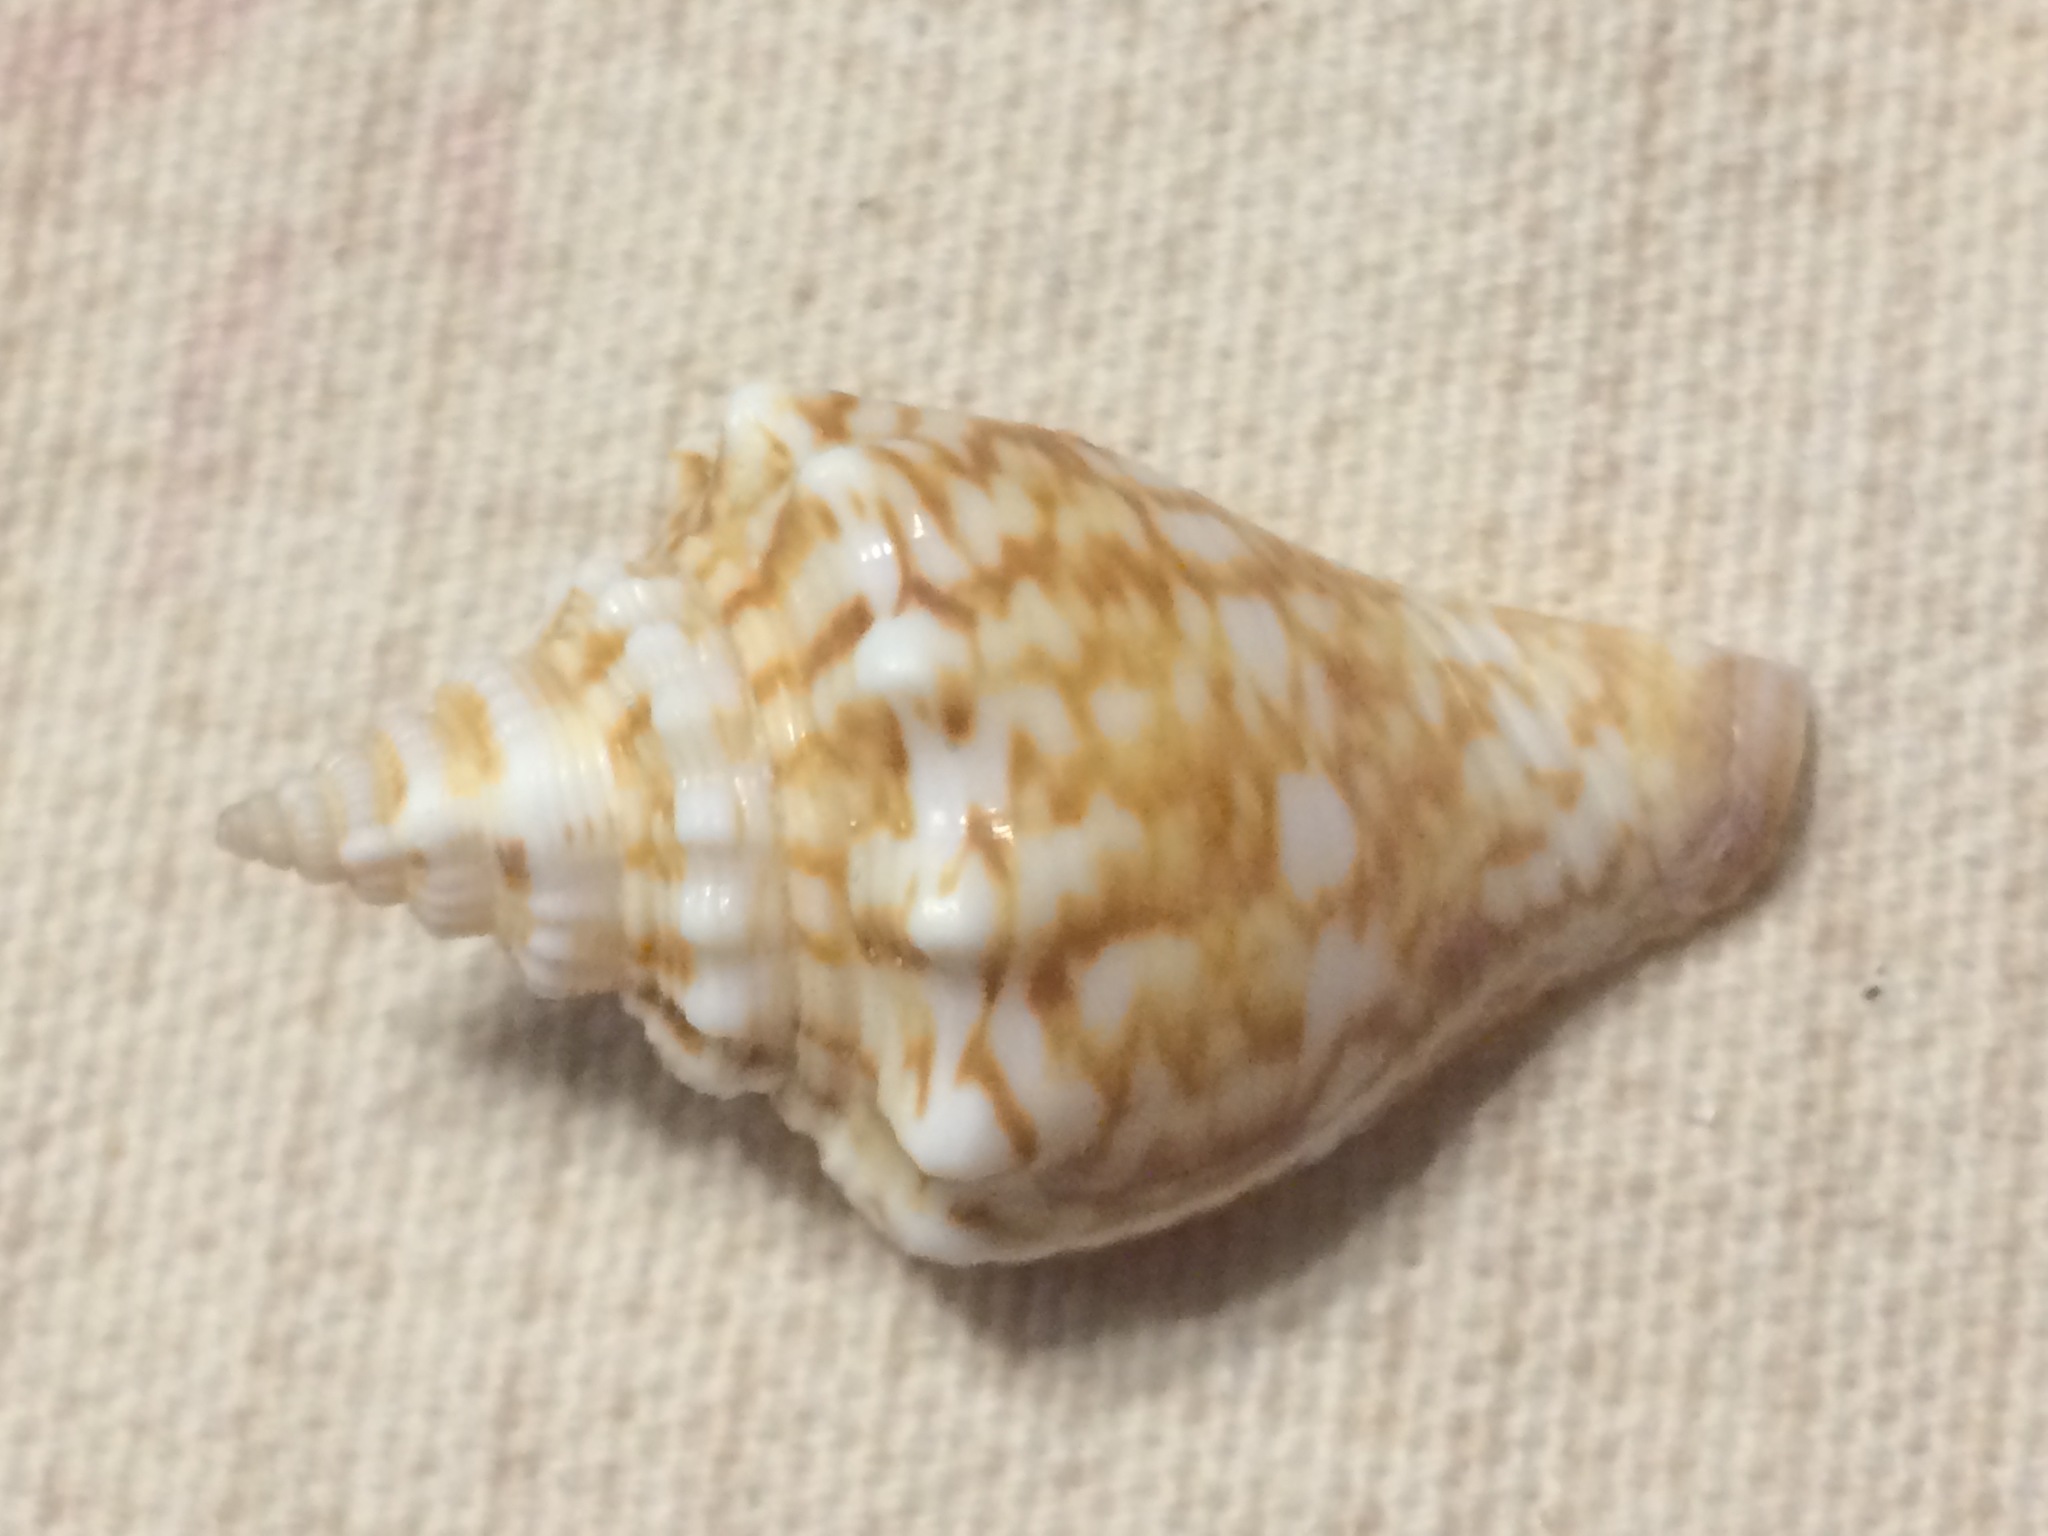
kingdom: Animalia
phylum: Mollusca
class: Gastropoda
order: Littorinimorpha
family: Strombidae
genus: Strombus
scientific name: Strombus alatus
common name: Florida fighting conch
